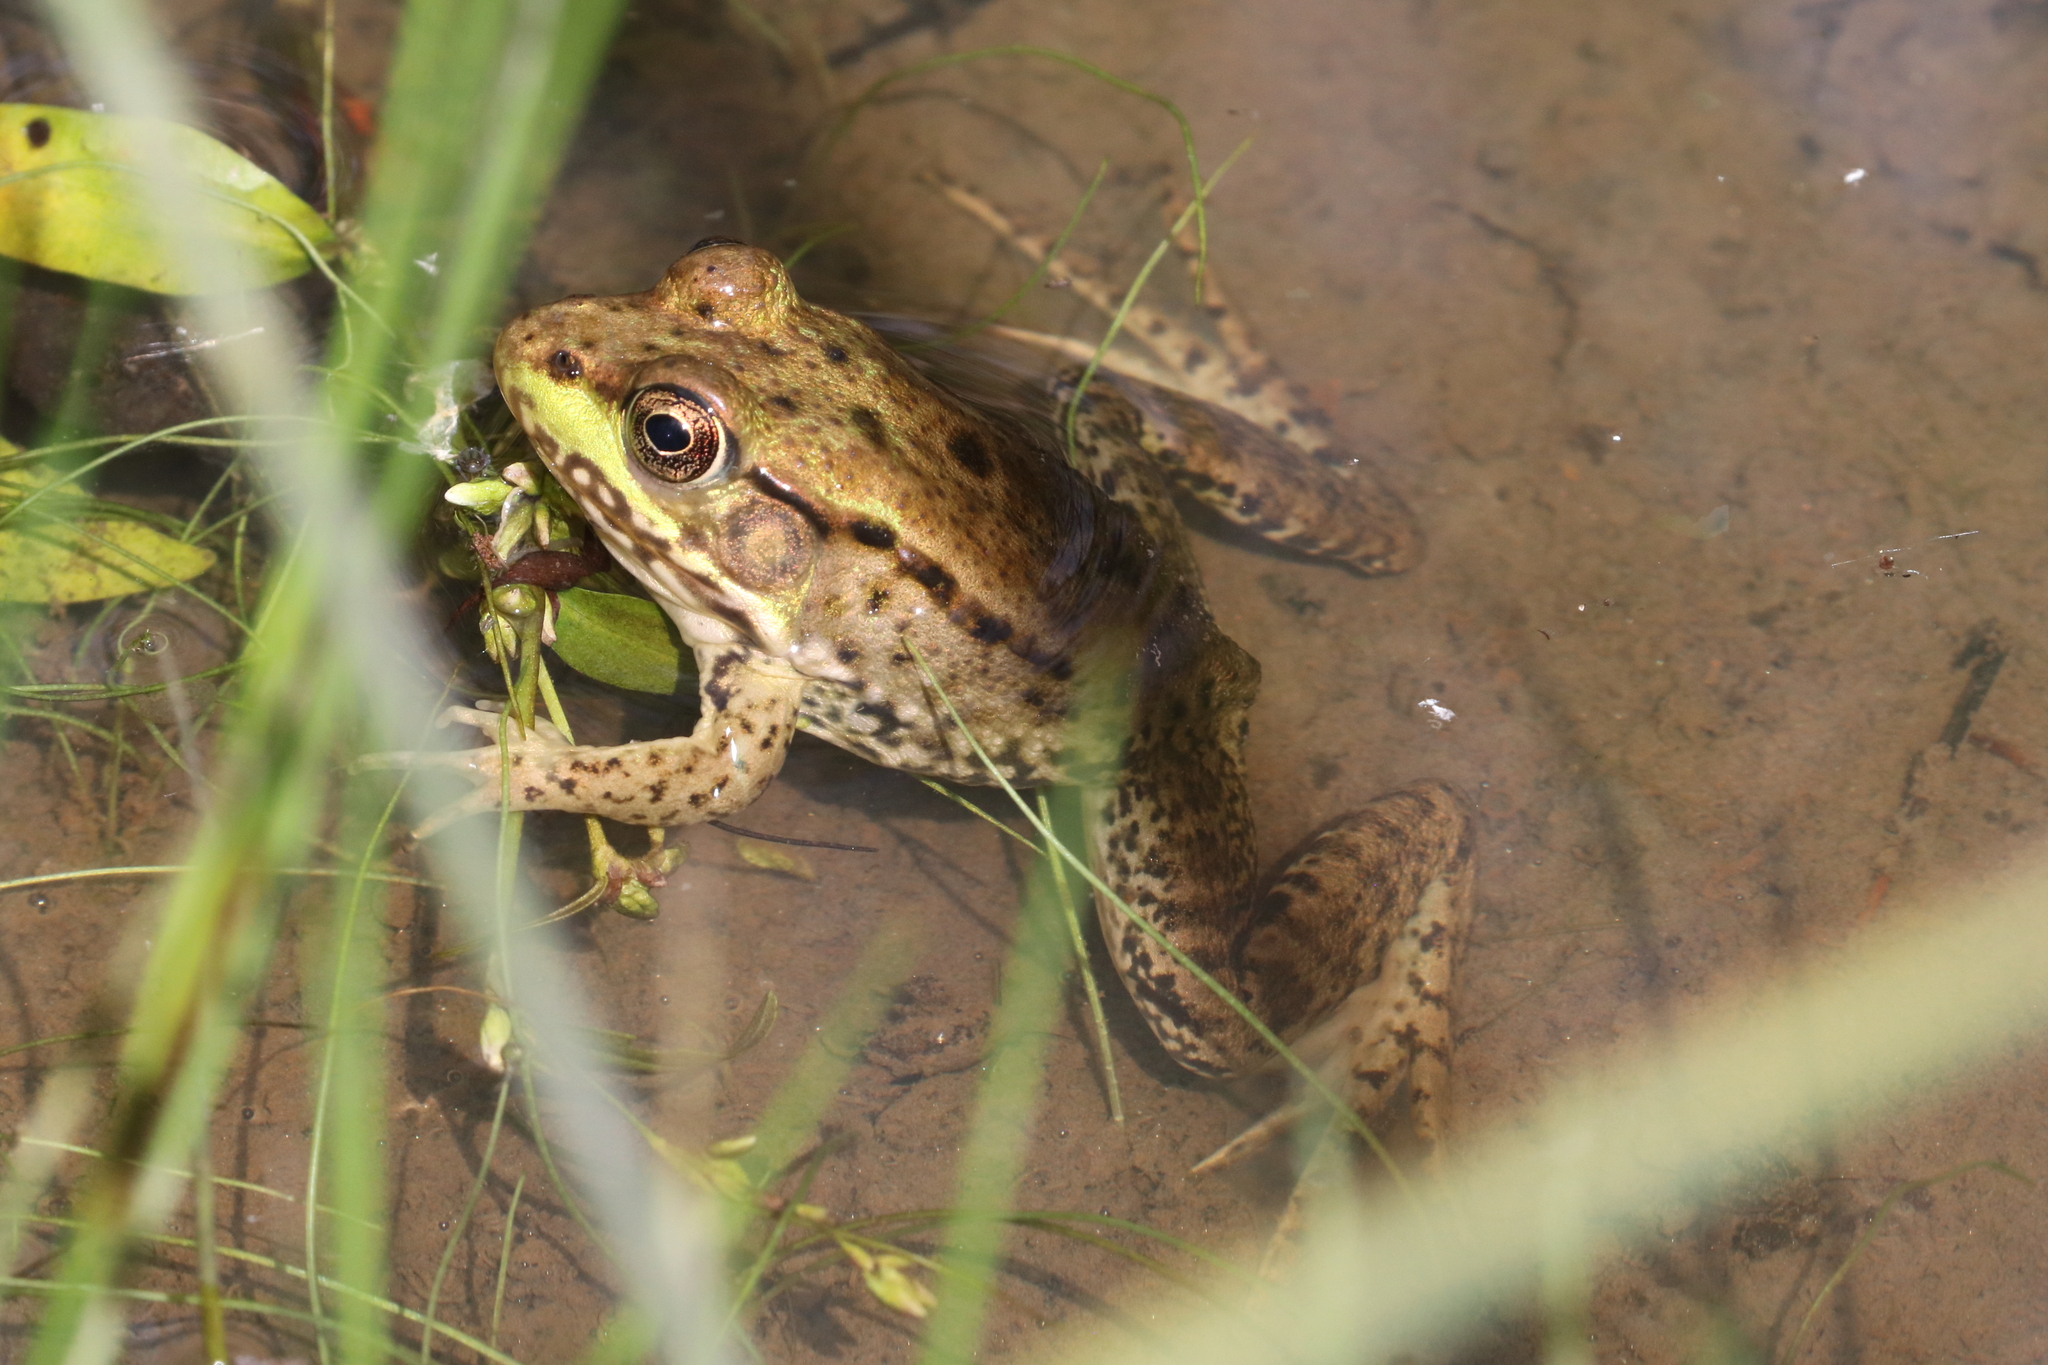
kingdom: Animalia
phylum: Chordata
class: Amphibia
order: Anura
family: Ranidae
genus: Lithobates
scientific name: Lithobates clamitans
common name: Green frog
